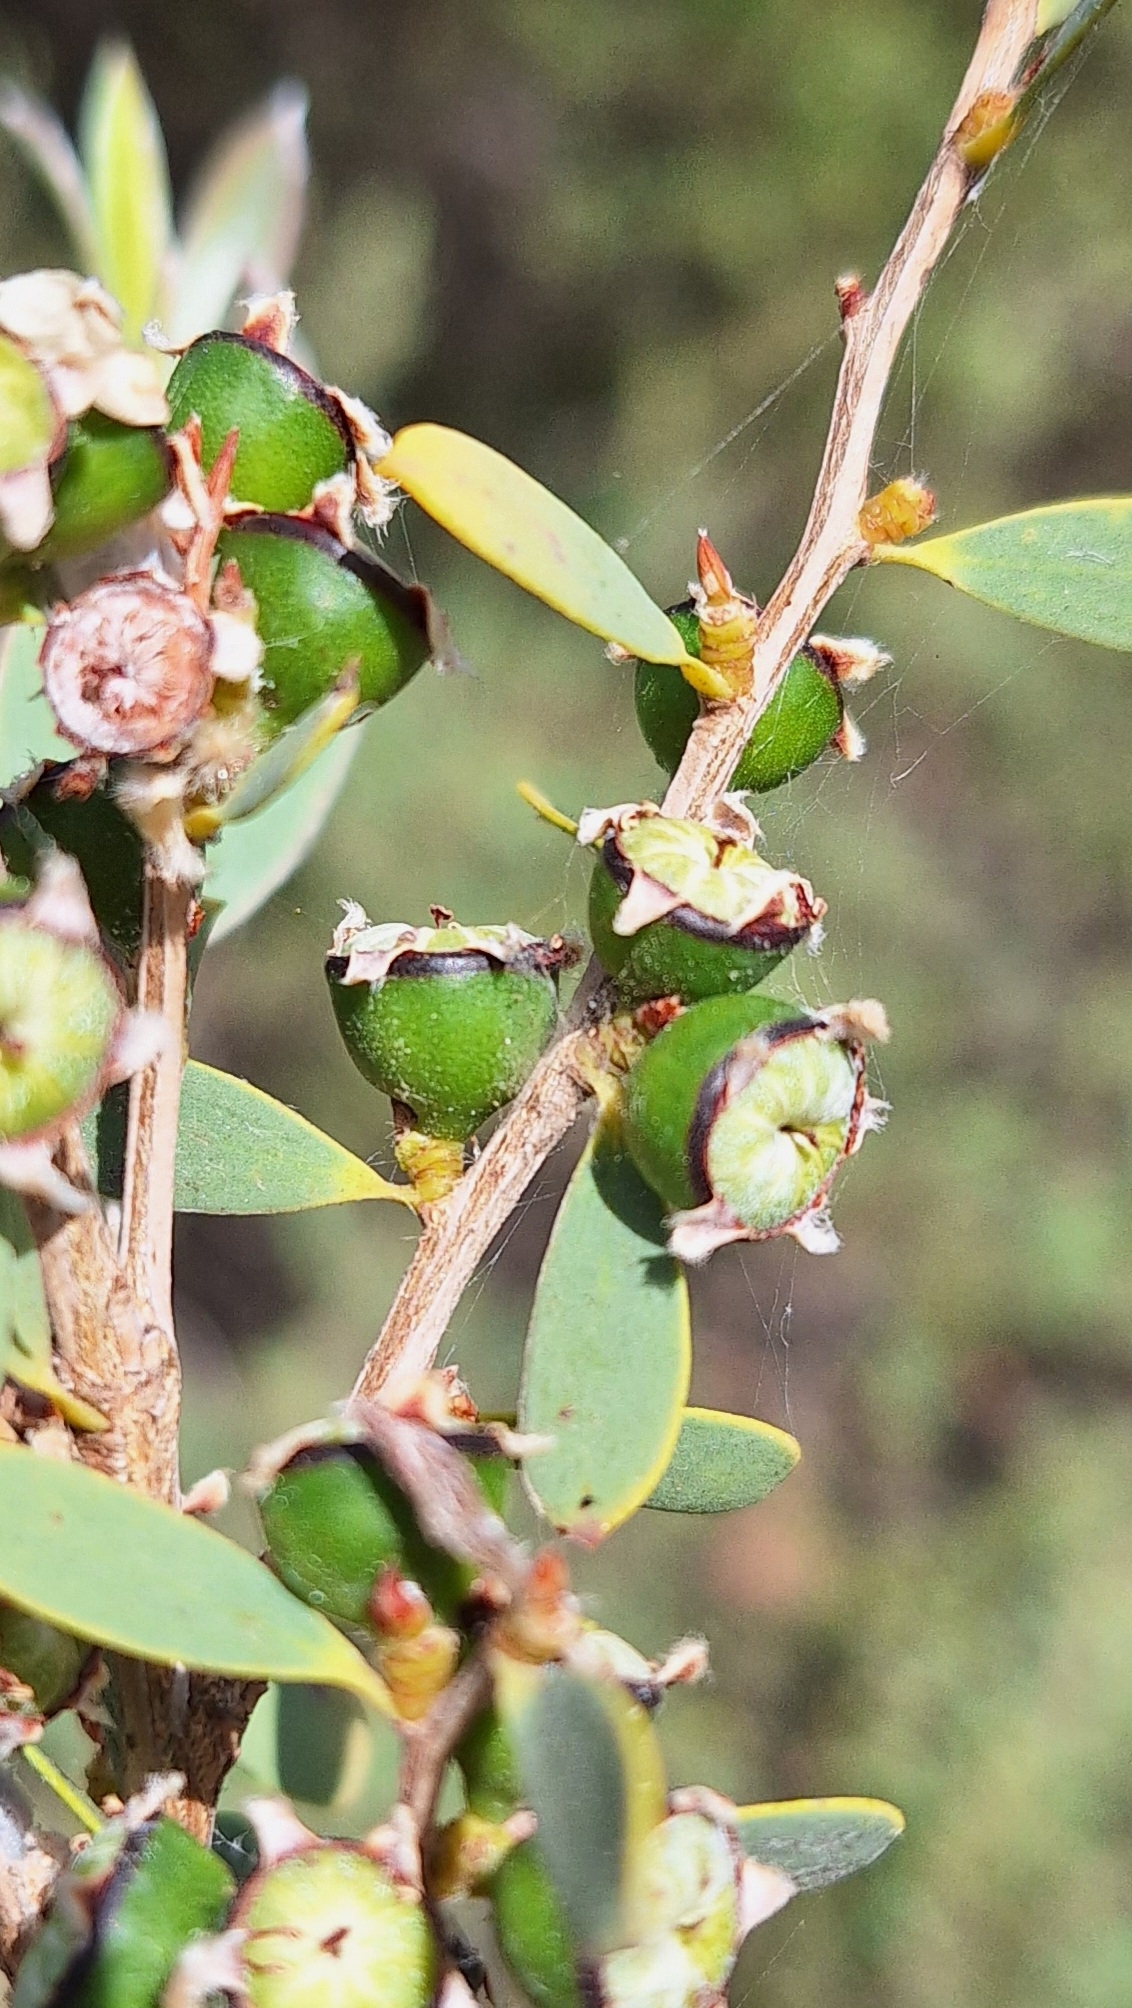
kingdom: Plantae
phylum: Tracheophyta
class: Magnoliopsida
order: Myrtales
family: Myrtaceae
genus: Leptospermum
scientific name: Leptospermum laevigatum
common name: Australian teatree
